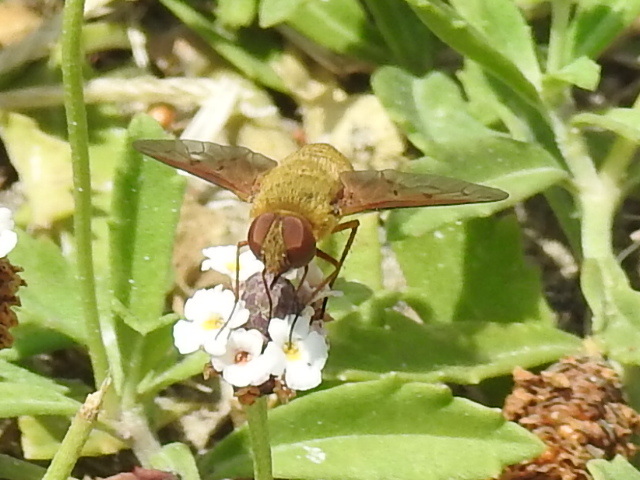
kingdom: Animalia
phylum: Arthropoda
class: Insecta
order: Diptera
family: Bombyliidae
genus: Chrysanthrax
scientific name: Chrysanthrax edititius
